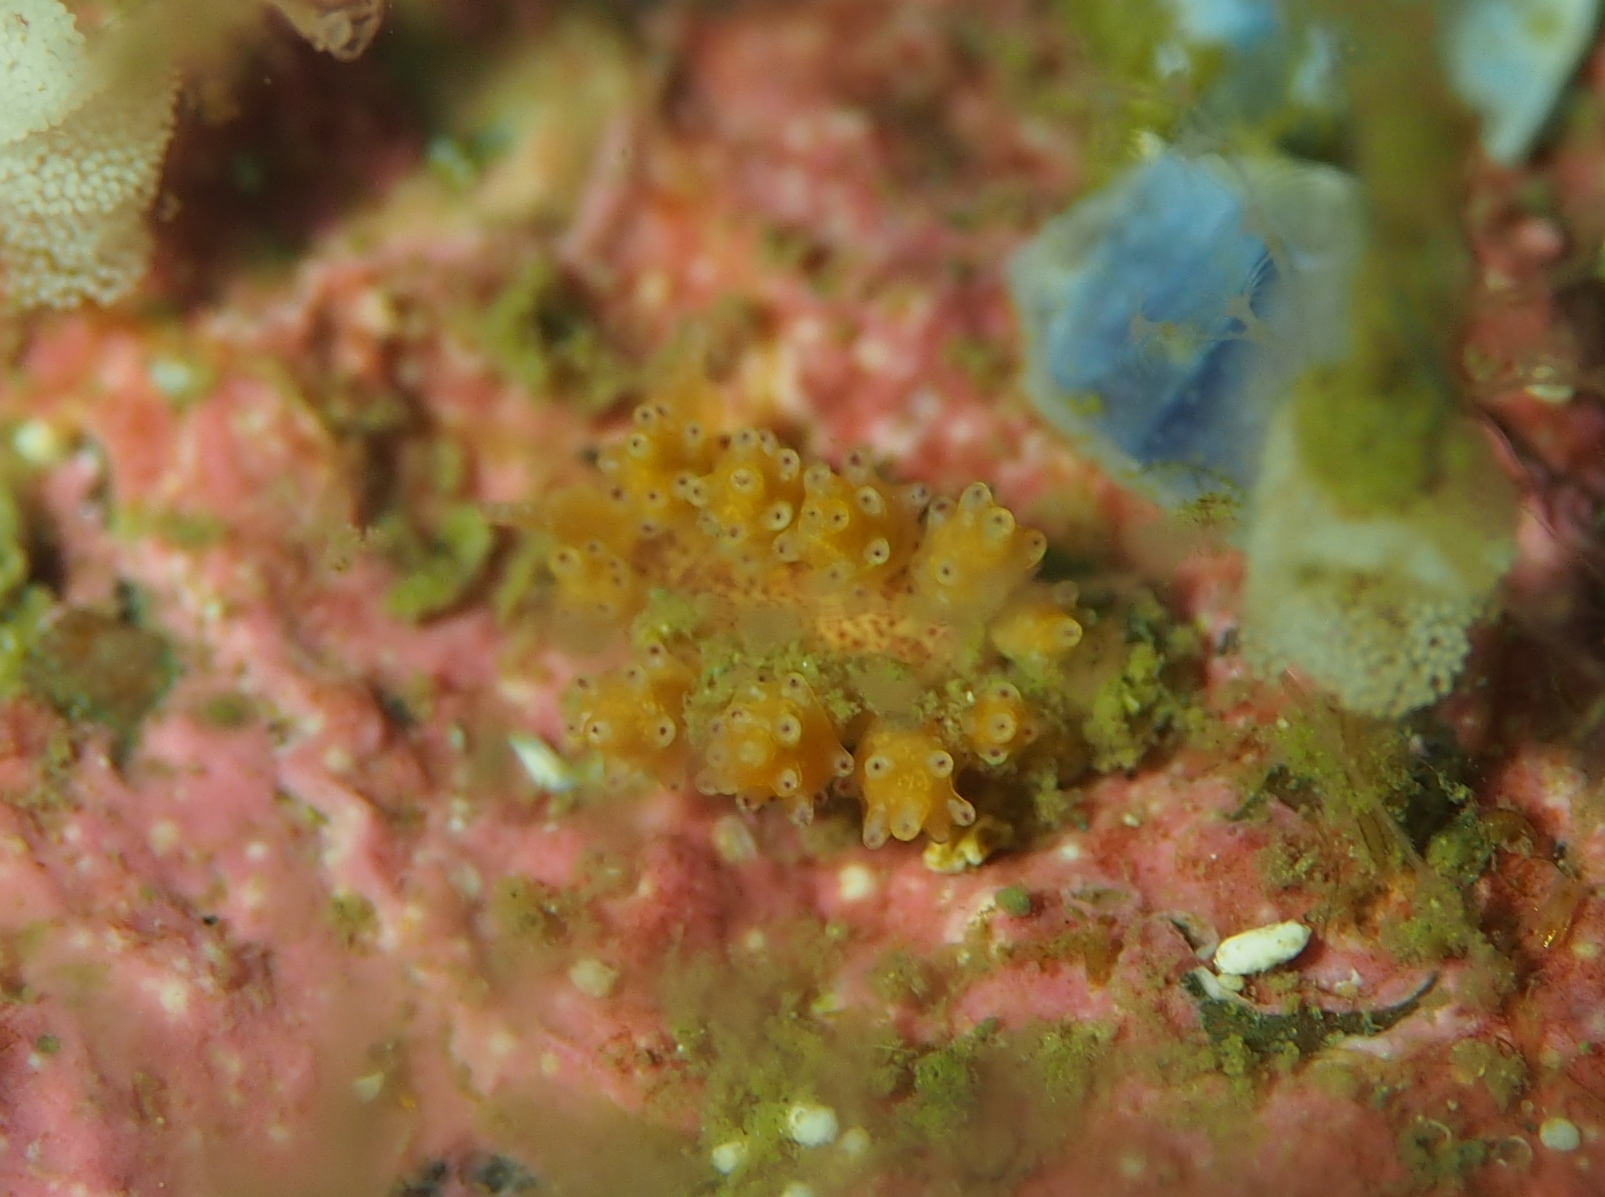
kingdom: Animalia
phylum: Mollusca
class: Gastropoda
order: Nudibranchia
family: Dotidae
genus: Doto
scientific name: Doto dunnei
